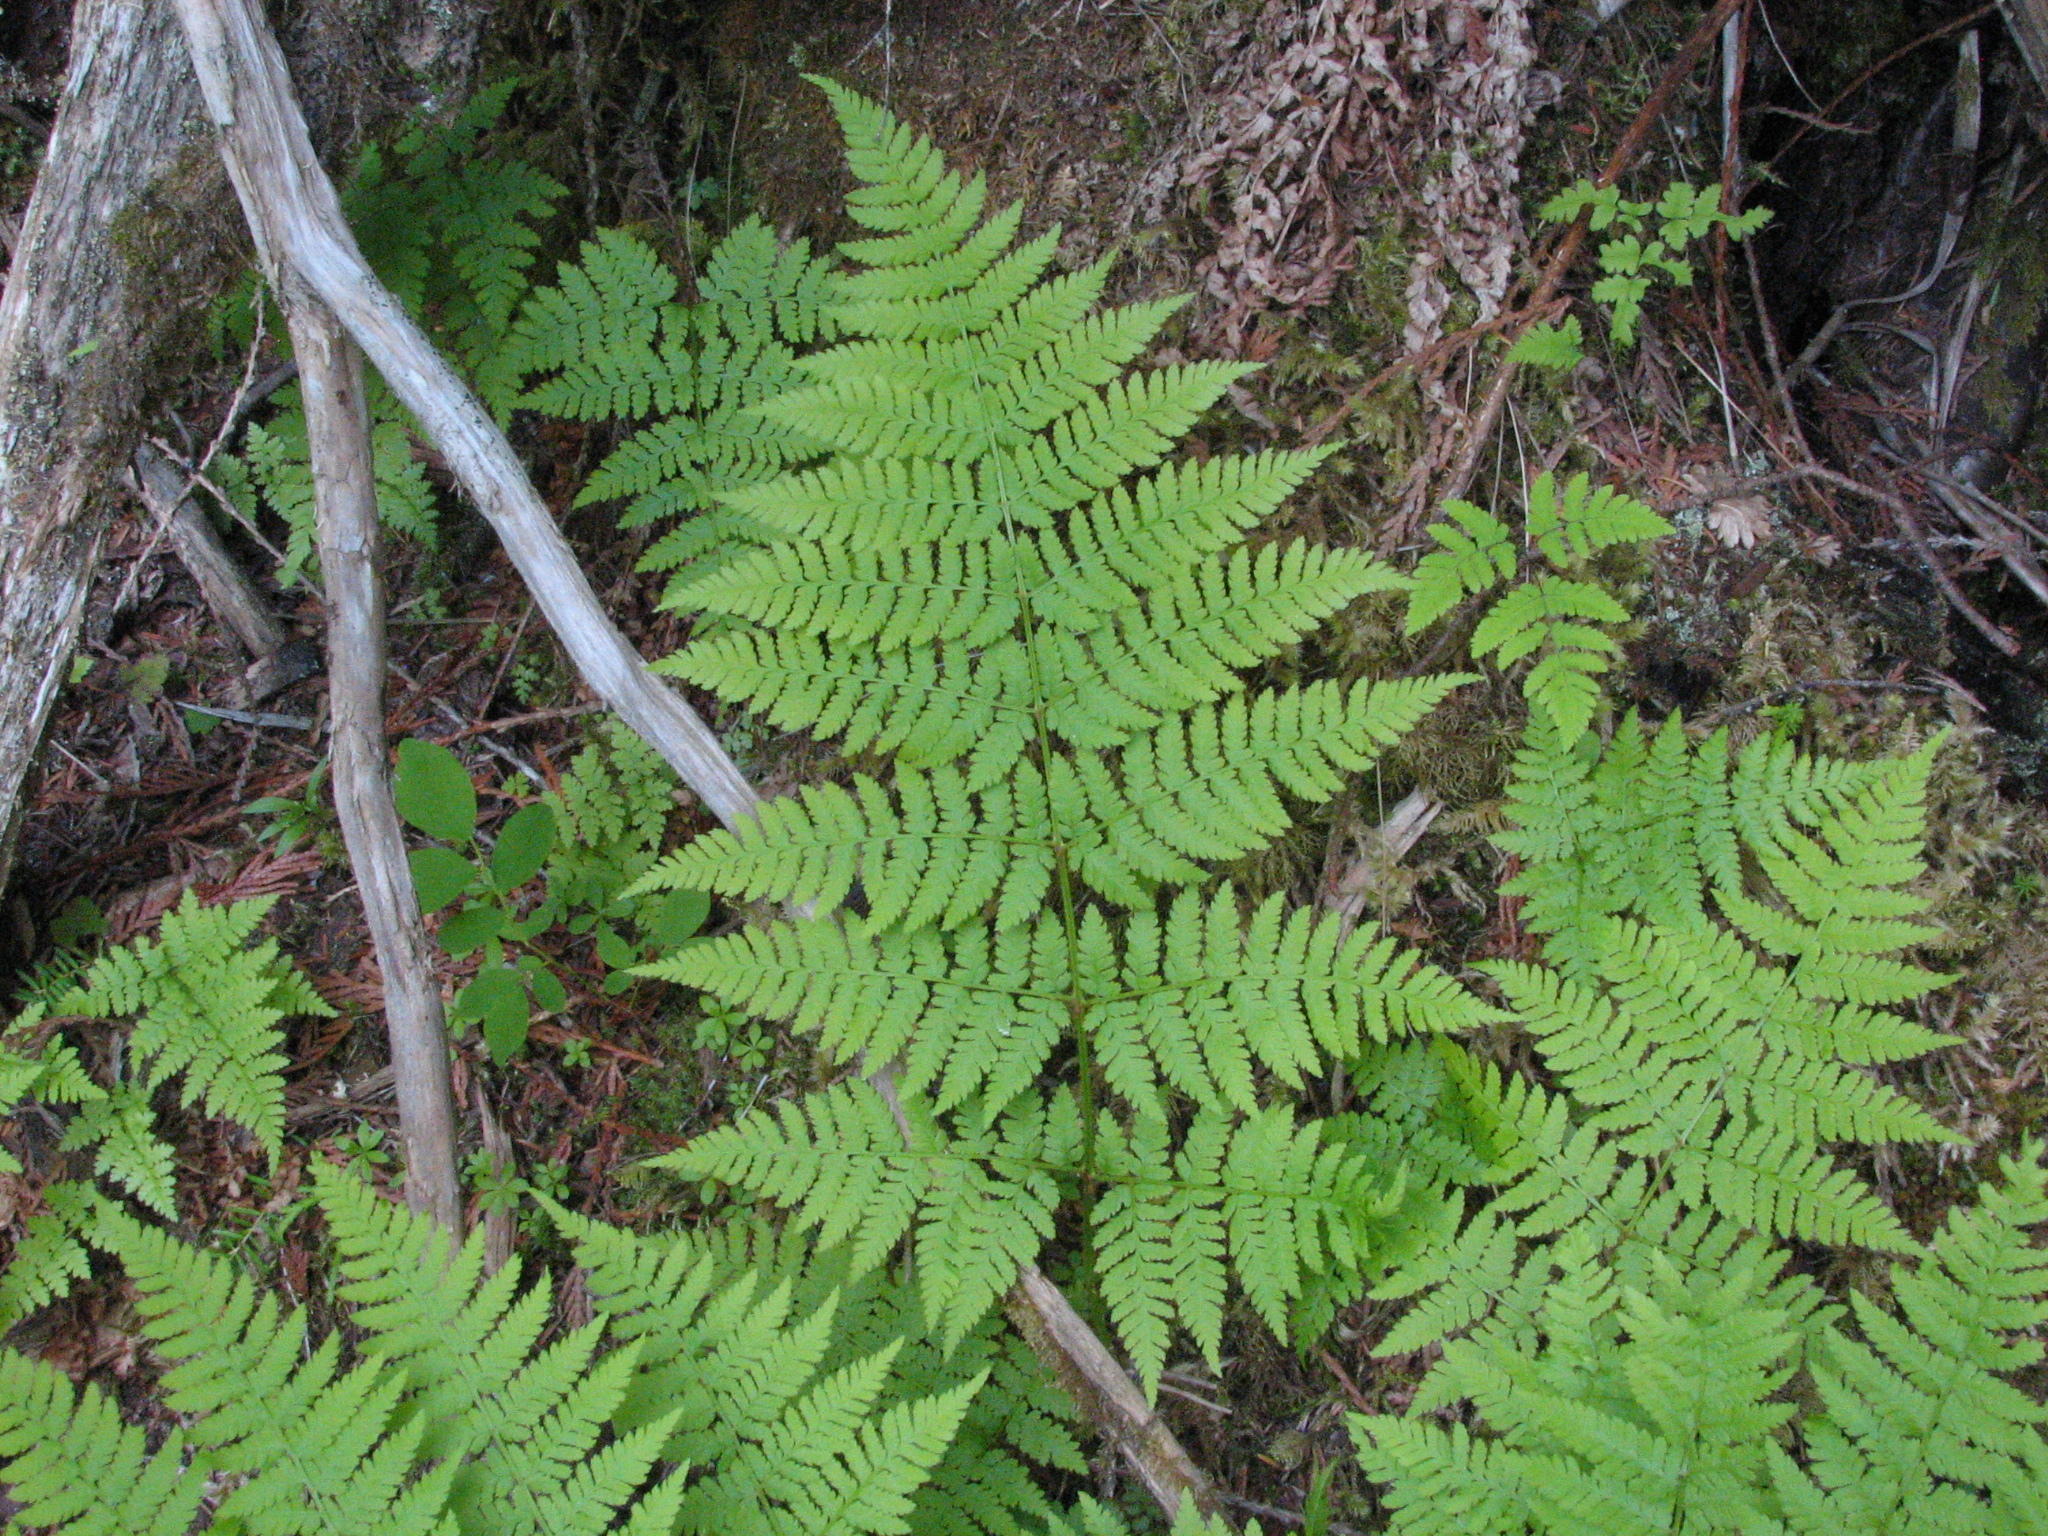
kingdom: Plantae
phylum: Tracheophyta
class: Polypodiopsida
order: Polypodiales
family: Dryopteridaceae
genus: Dryopteris
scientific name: Dryopteris expansa
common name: Northern buckler fern
